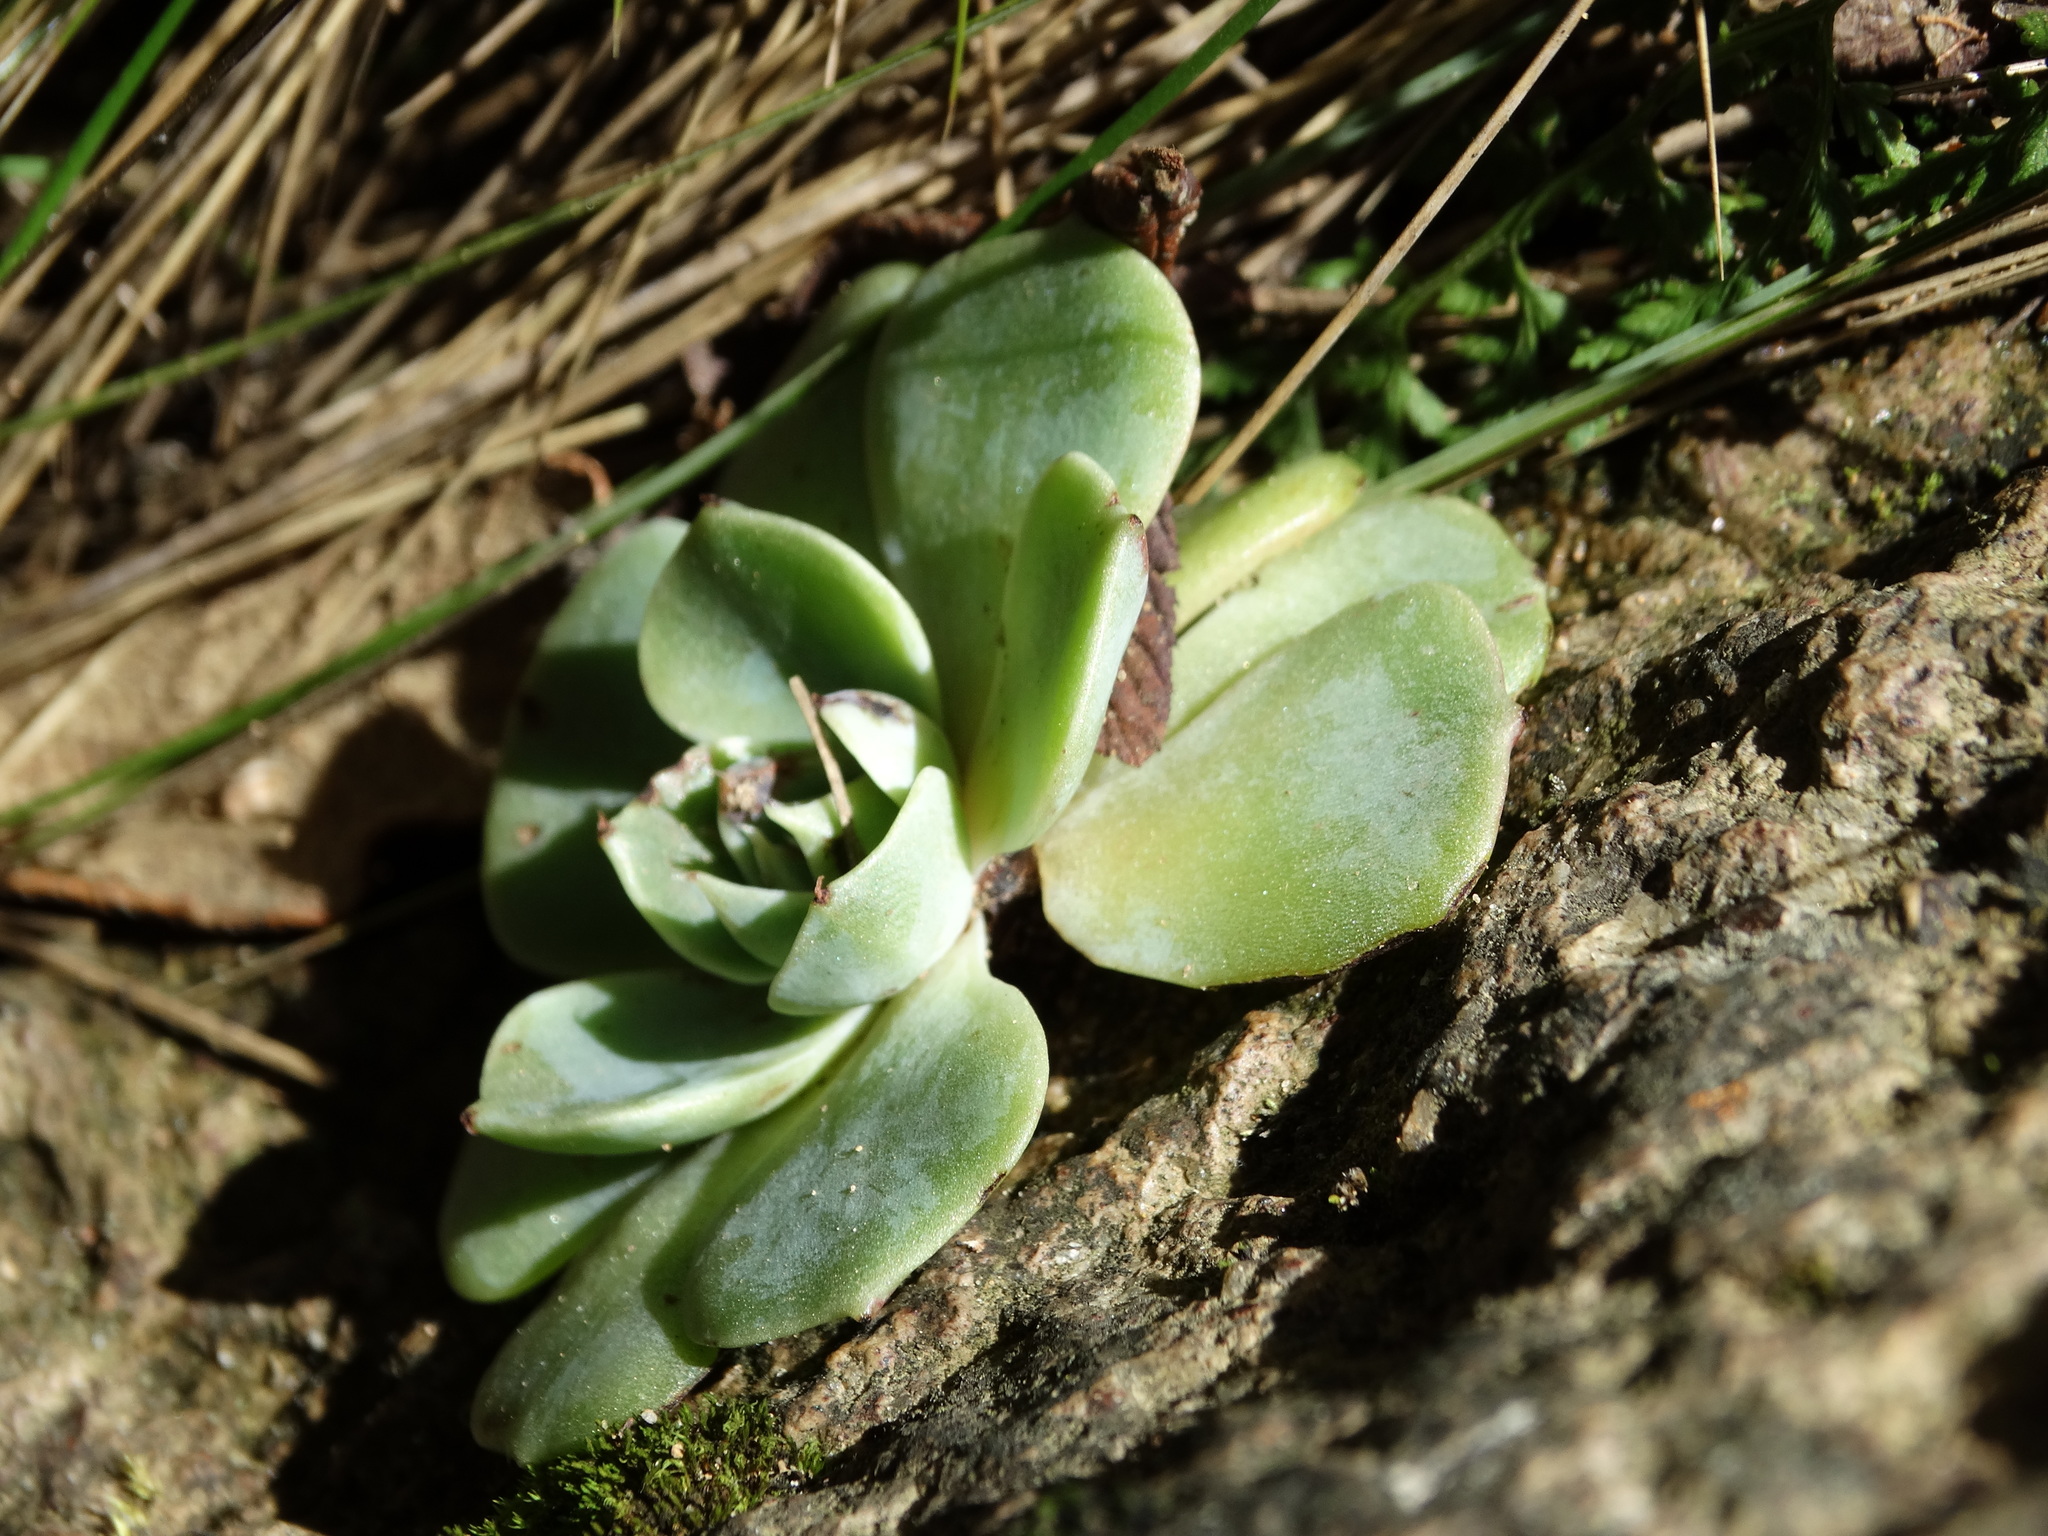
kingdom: Plantae
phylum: Tracheophyta
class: Magnoliopsida
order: Saxifragales
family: Crassulaceae
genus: Echeveria
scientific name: Echeveria secunda
